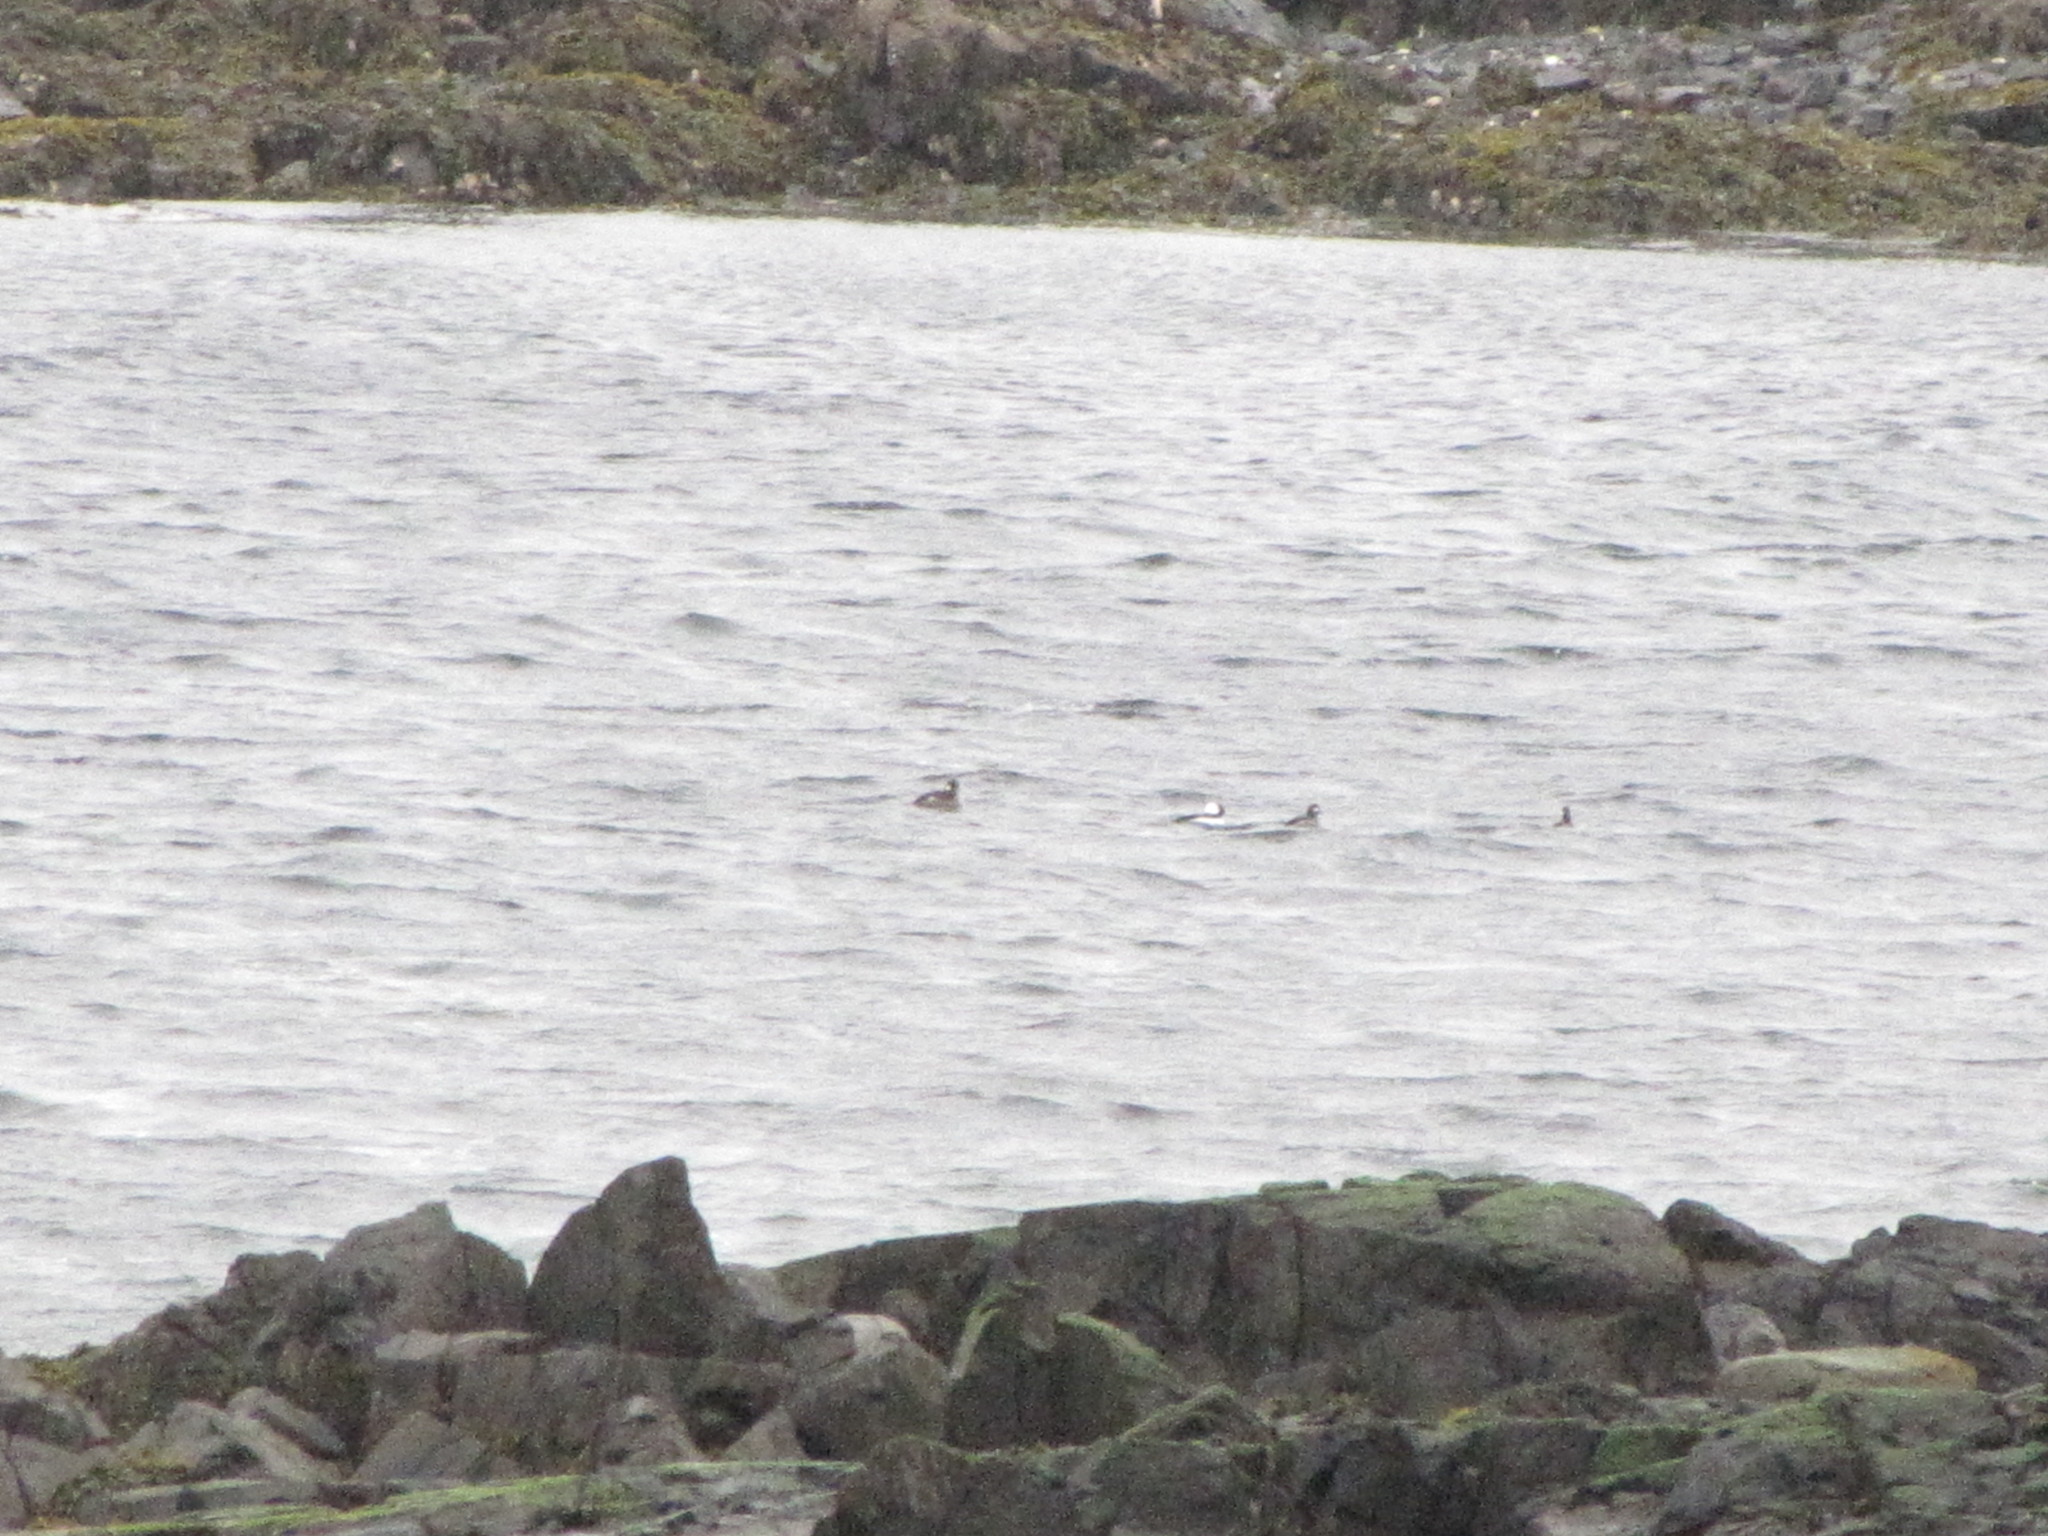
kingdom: Animalia
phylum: Chordata
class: Aves
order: Anseriformes
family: Anatidae
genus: Bucephala
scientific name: Bucephala albeola
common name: Bufflehead
